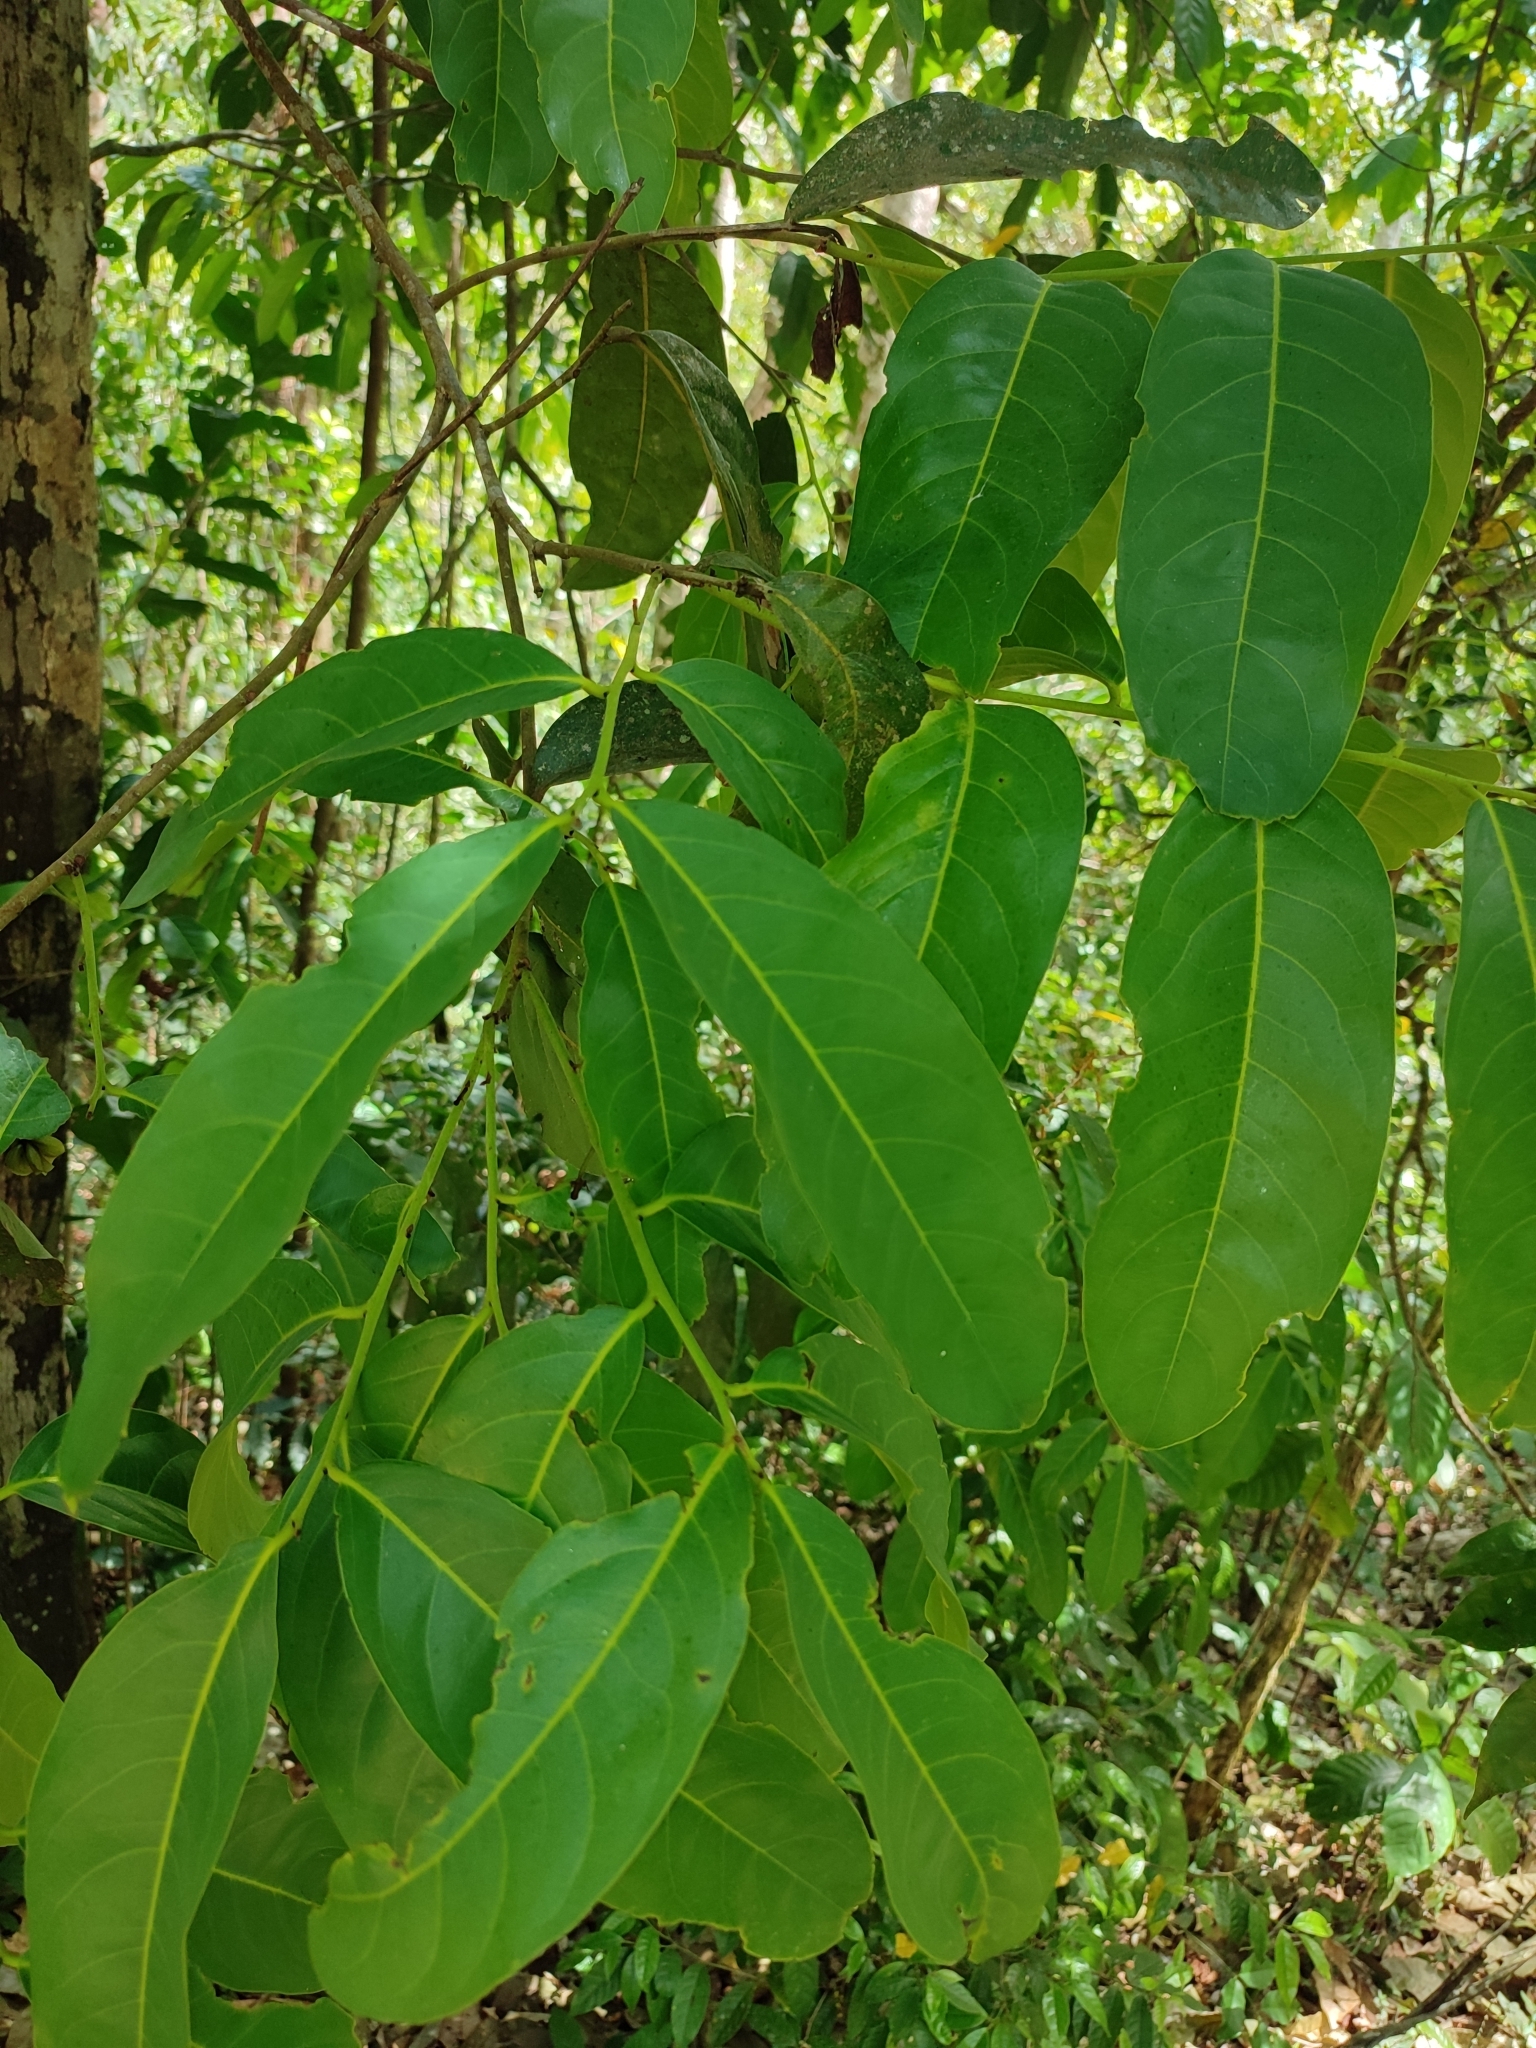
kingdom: Plantae
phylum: Tracheophyta
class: Magnoliopsida
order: Ericales
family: Ebenaceae
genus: Diospyros
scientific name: Diospyros paniculata
